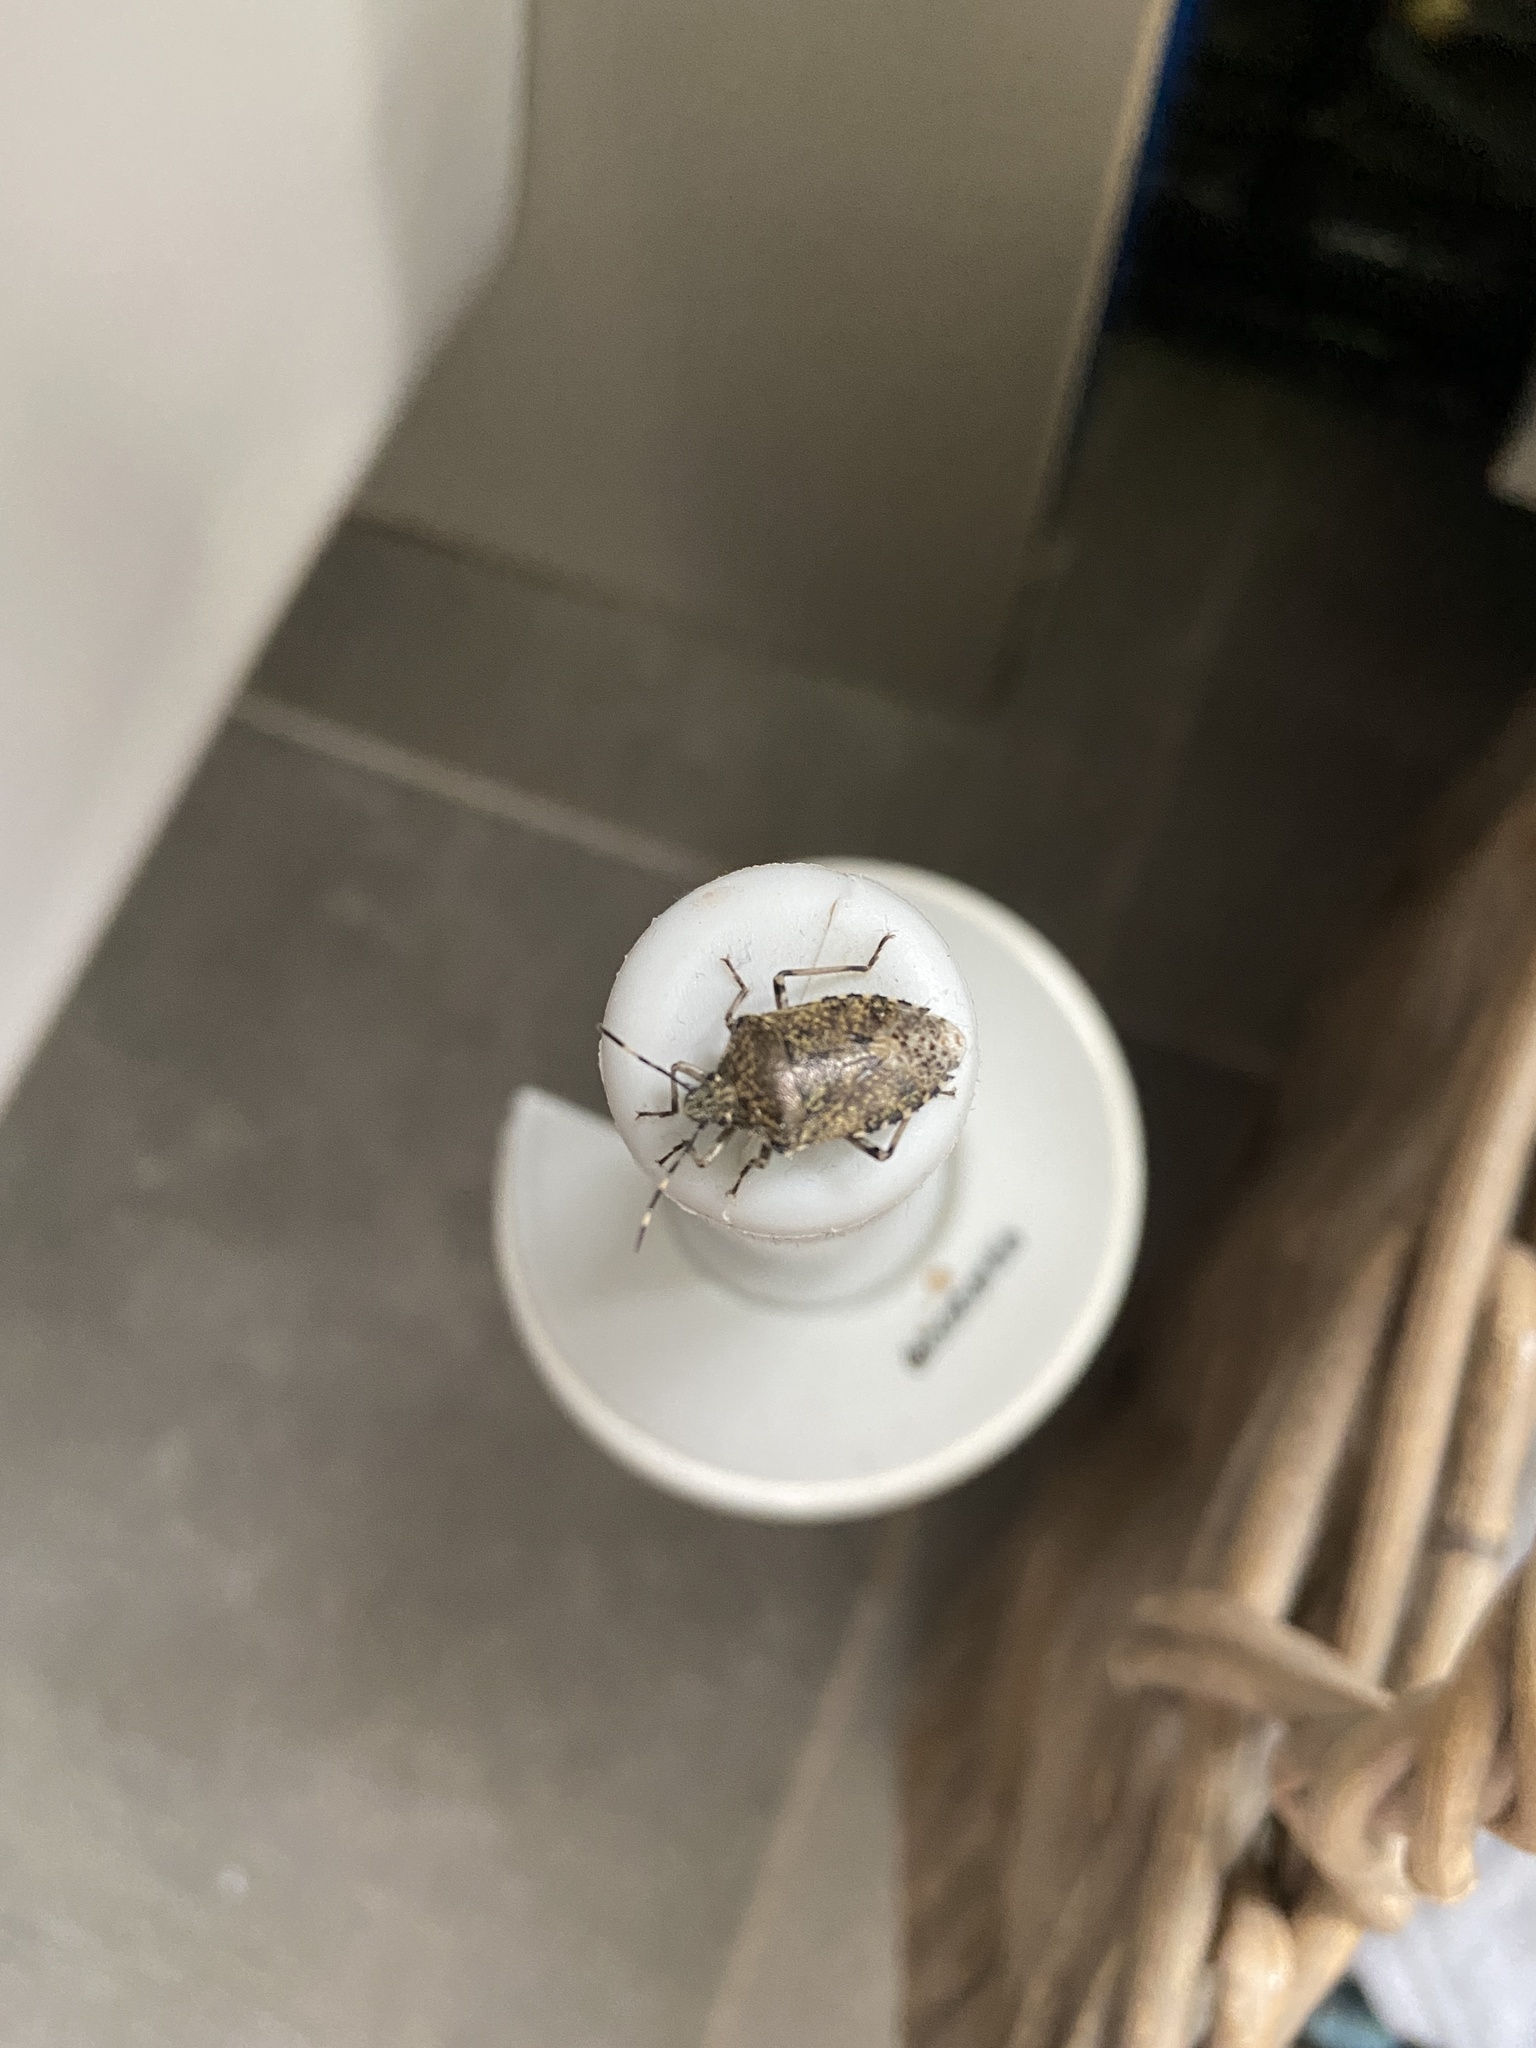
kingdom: Animalia
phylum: Arthropoda
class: Insecta
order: Hemiptera
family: Pentatomidae
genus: Rhaphigaster
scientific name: Rhaphigaster nebulosa
